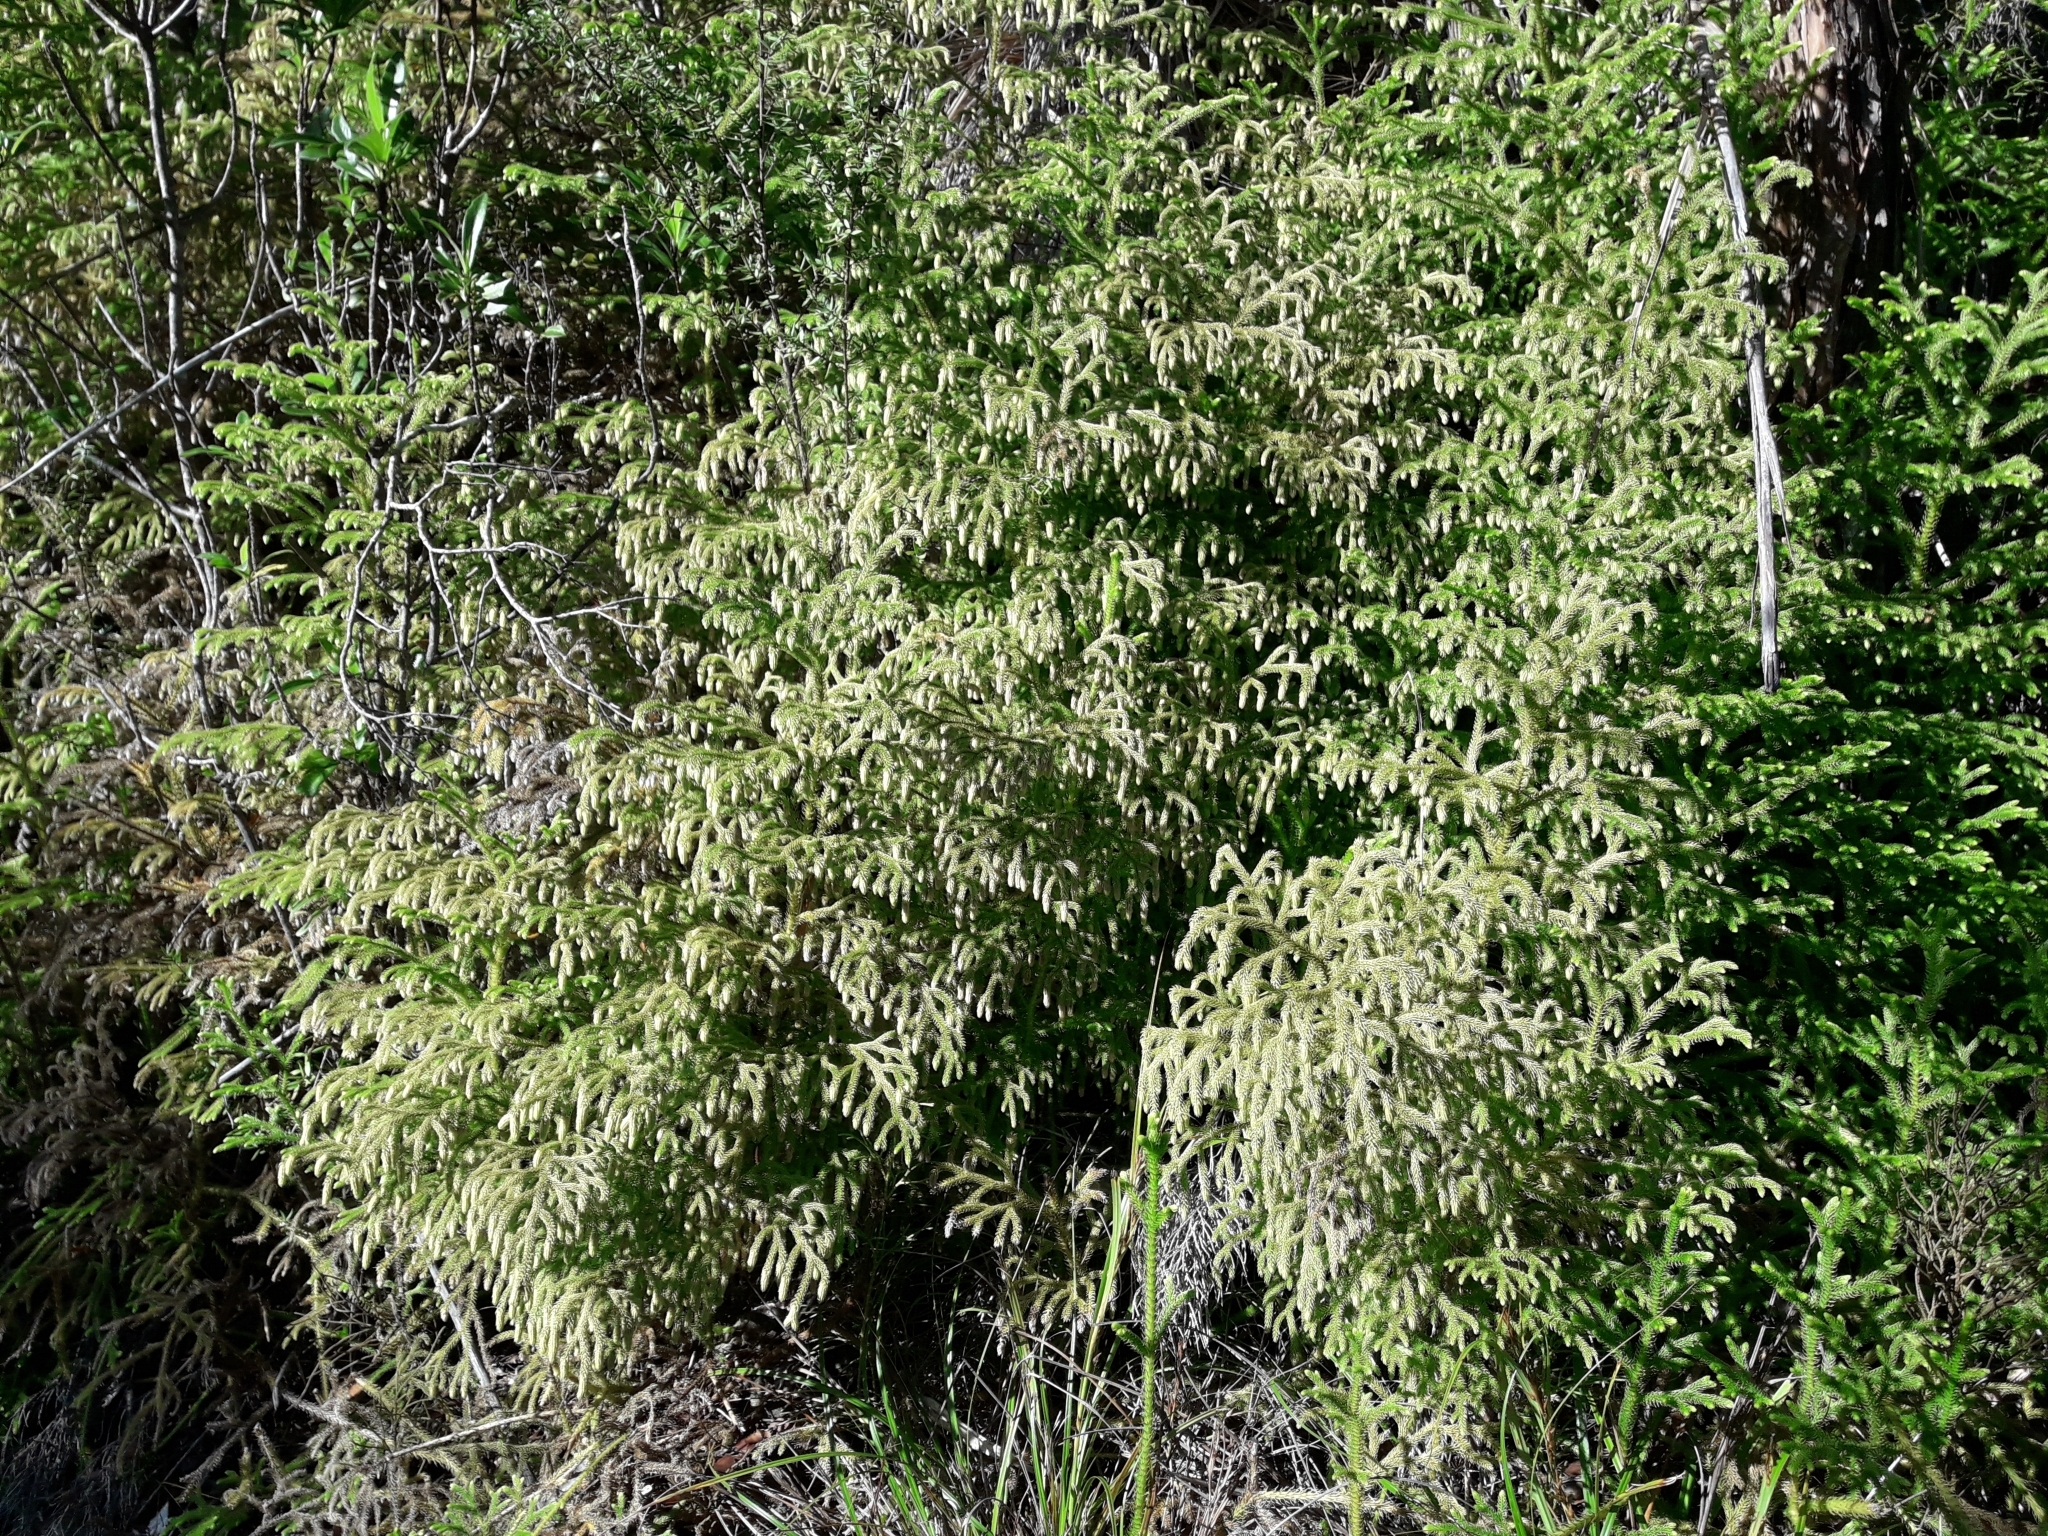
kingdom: Plantae
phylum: Tracheophyta
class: Lycopodiopsida
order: Lycopodiales
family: Lycopodiaceae
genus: Palhinhaea
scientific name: Palhinhaea cernua
